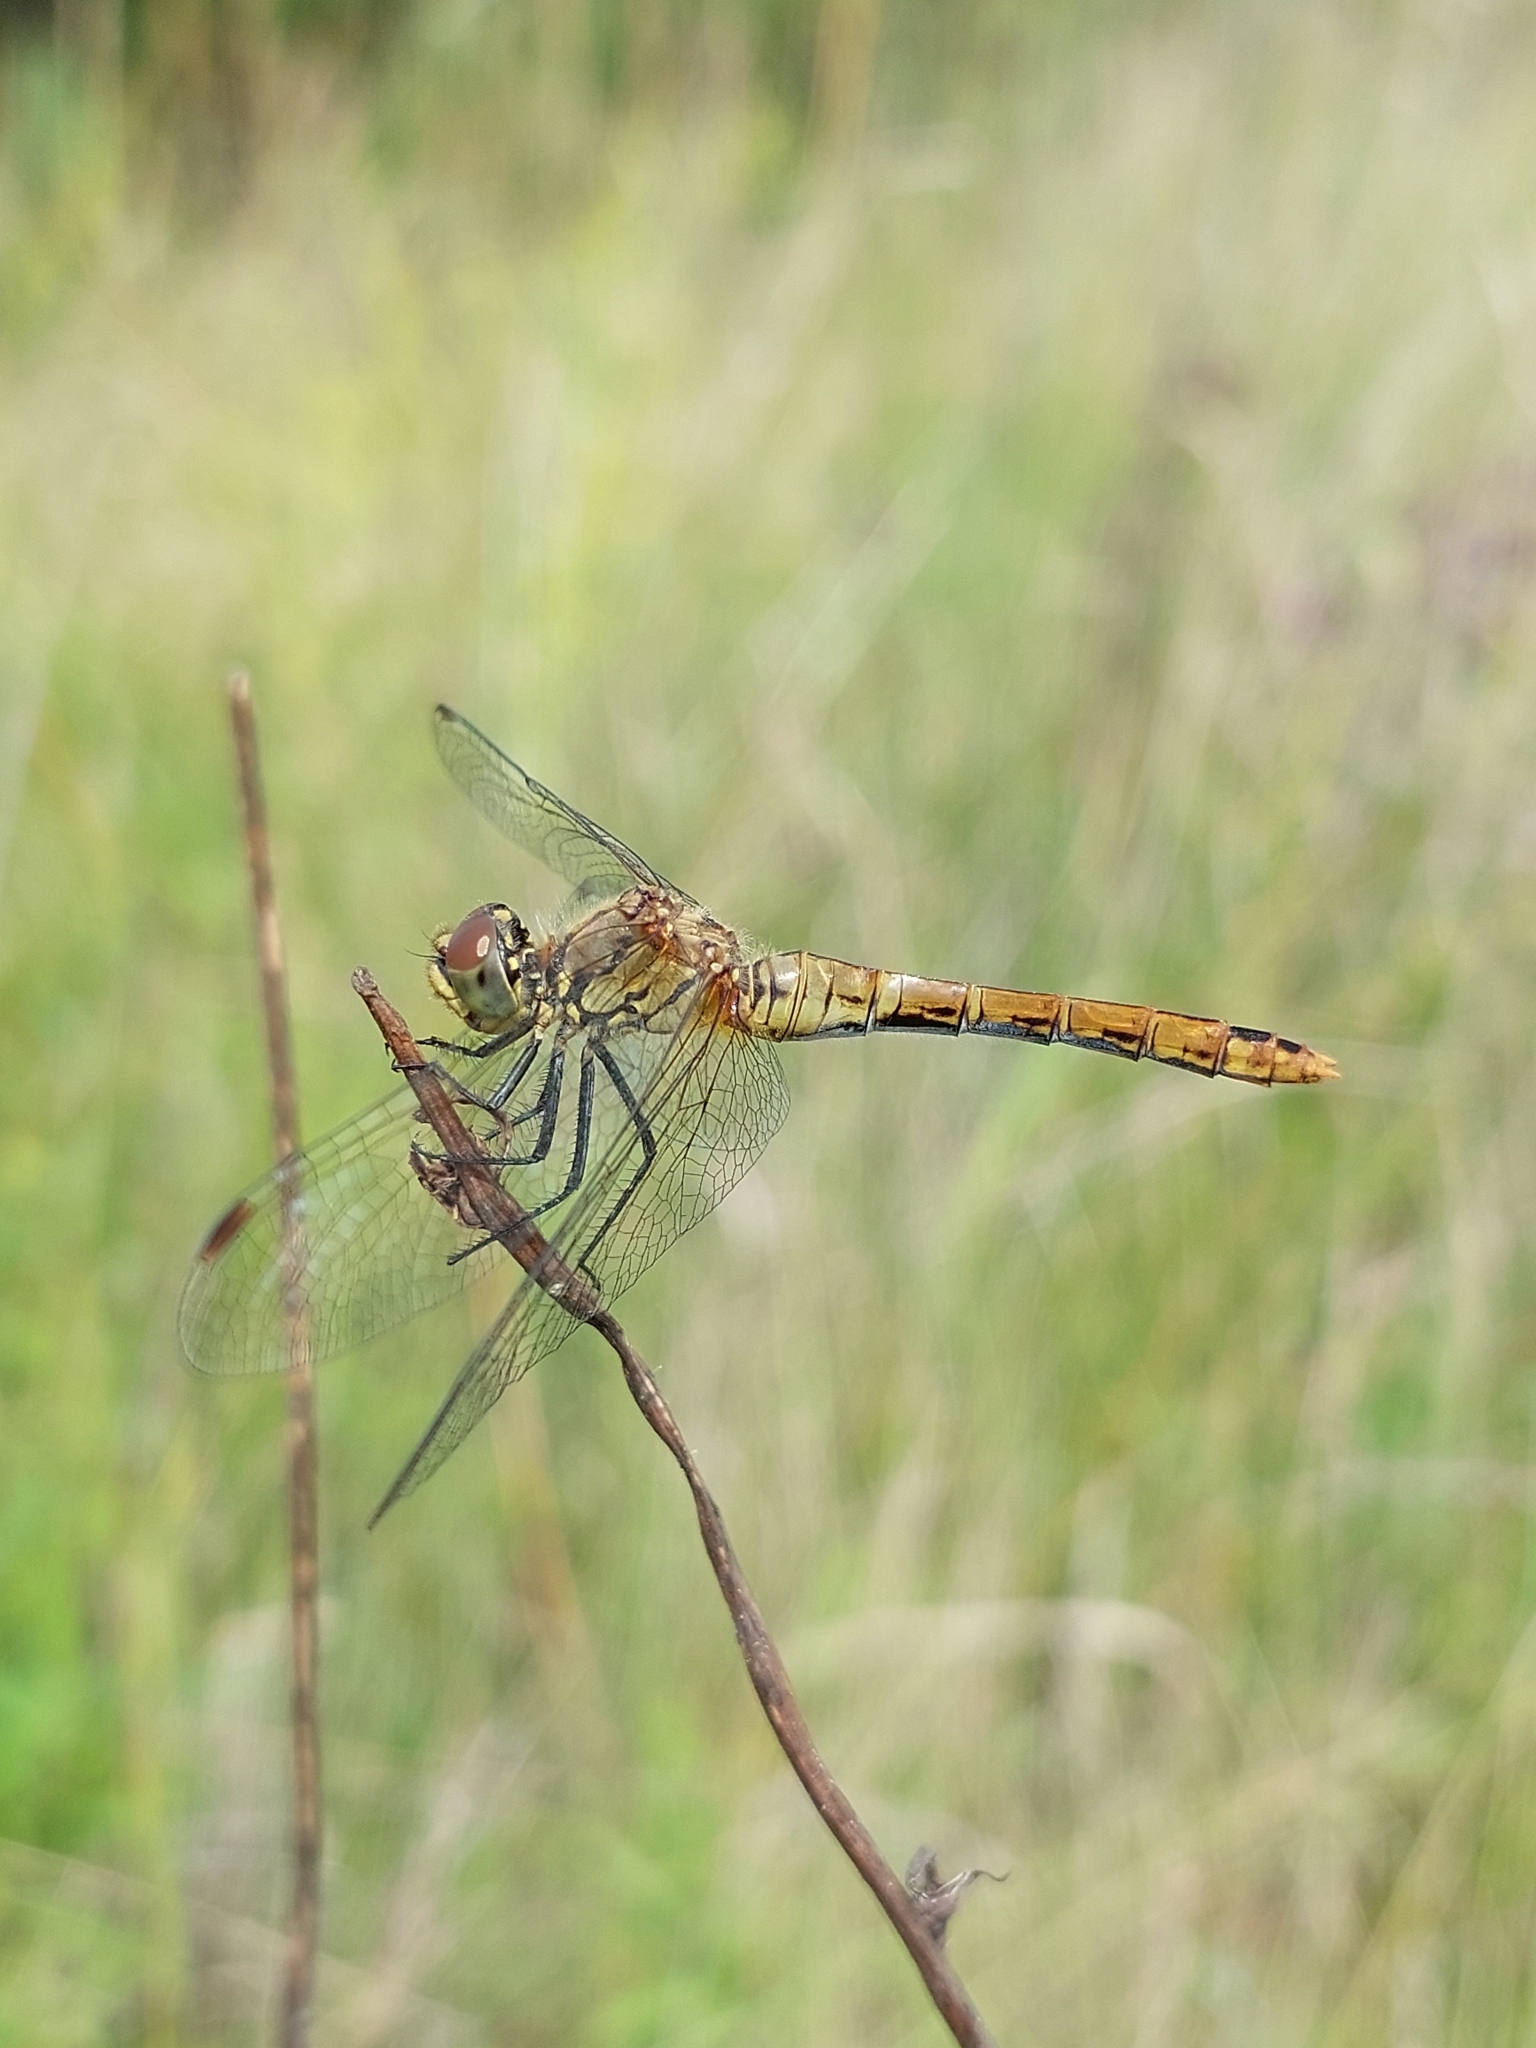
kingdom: Animalia
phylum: Arthropoda
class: Insecta
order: Odonata
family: Libellulidae
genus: Sympetrum
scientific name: Sympetrum sanguineum
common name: Ruddy darter
